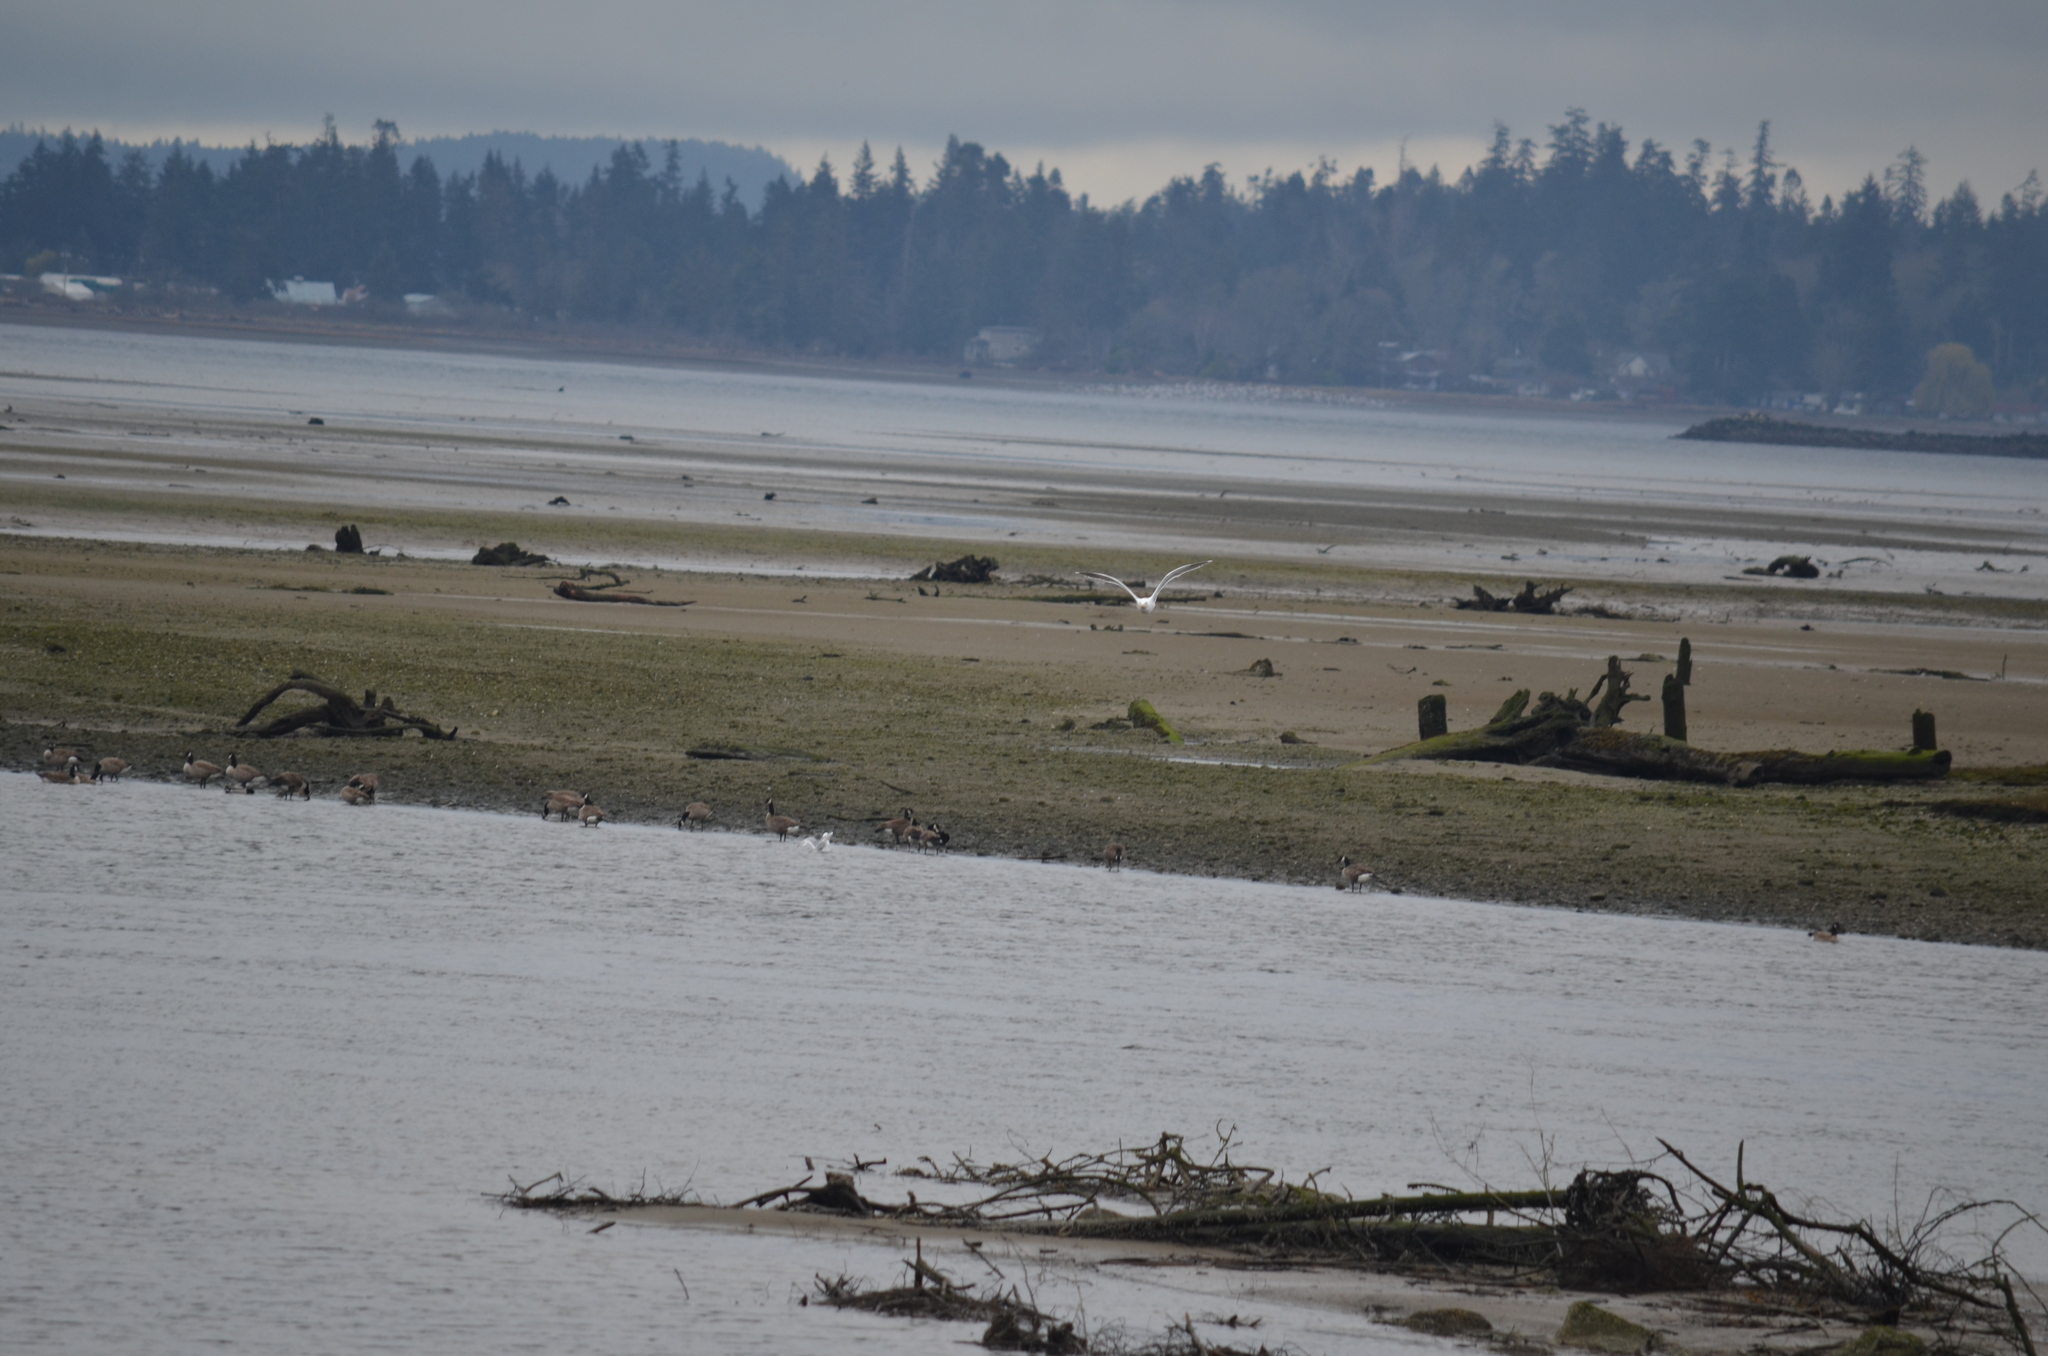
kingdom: Animalia
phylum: Chordata
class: Aves
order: Anseriformes
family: Anatidae
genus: Branta
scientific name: Branta canadensis
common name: Canada goose
